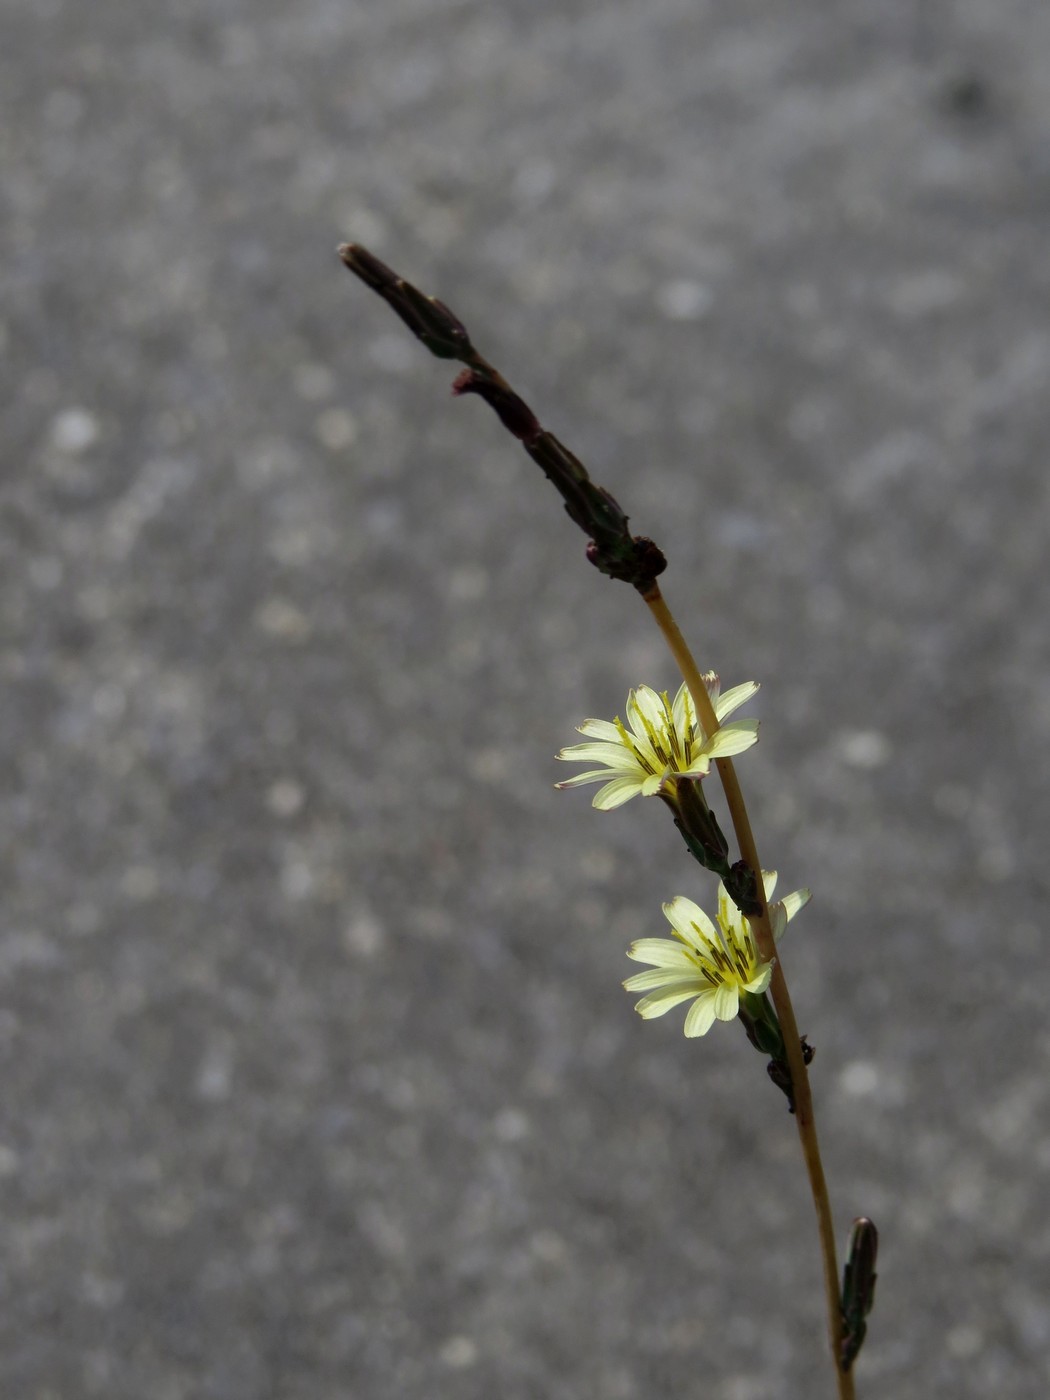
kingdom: Plantae
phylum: Tracheophyta
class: Magnoliopsida
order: Asterales
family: Asteraceae
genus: Lactuca
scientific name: Lactuca saligna
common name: Wild lettuce
